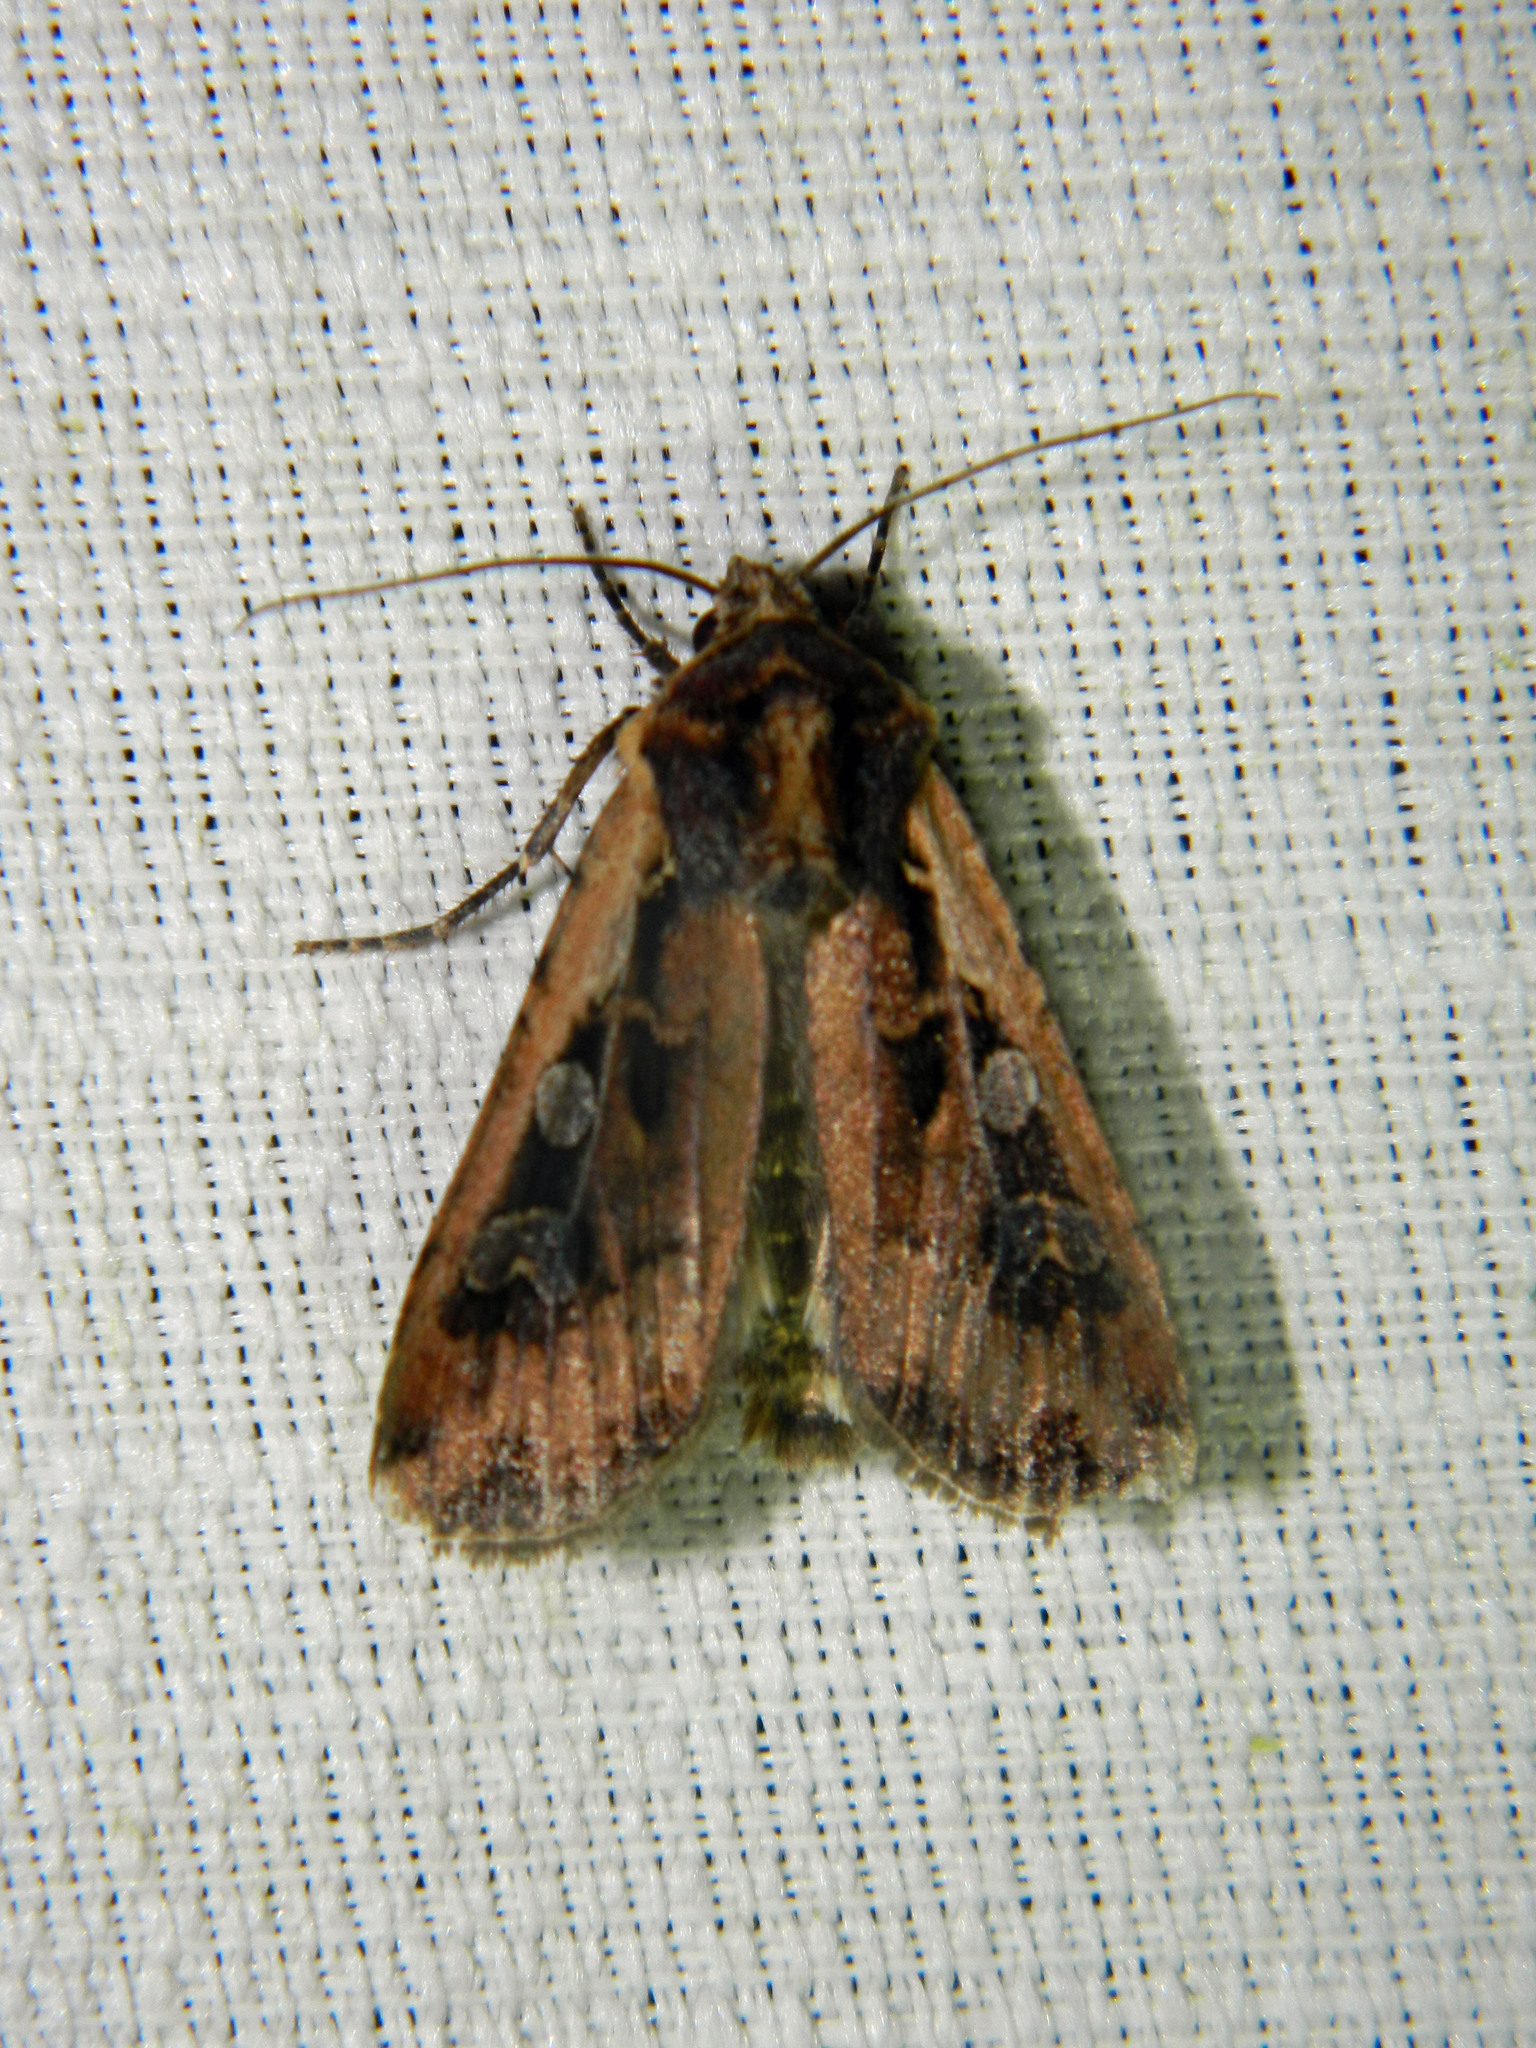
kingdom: Animalia
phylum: Arthropoda
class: Insecta
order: Lepidoptera
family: Noctuidae
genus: Euxoa
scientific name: Euxoa ochrogaster
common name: Red-backed cutworm moth
